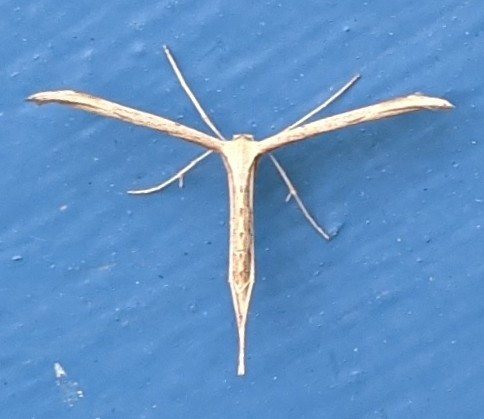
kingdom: Animalia
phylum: Arthropoda
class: Insecta
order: Lepidoptera
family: Pterophoridae
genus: Emmelina
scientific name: Emmelina monodactyla
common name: Common plume
